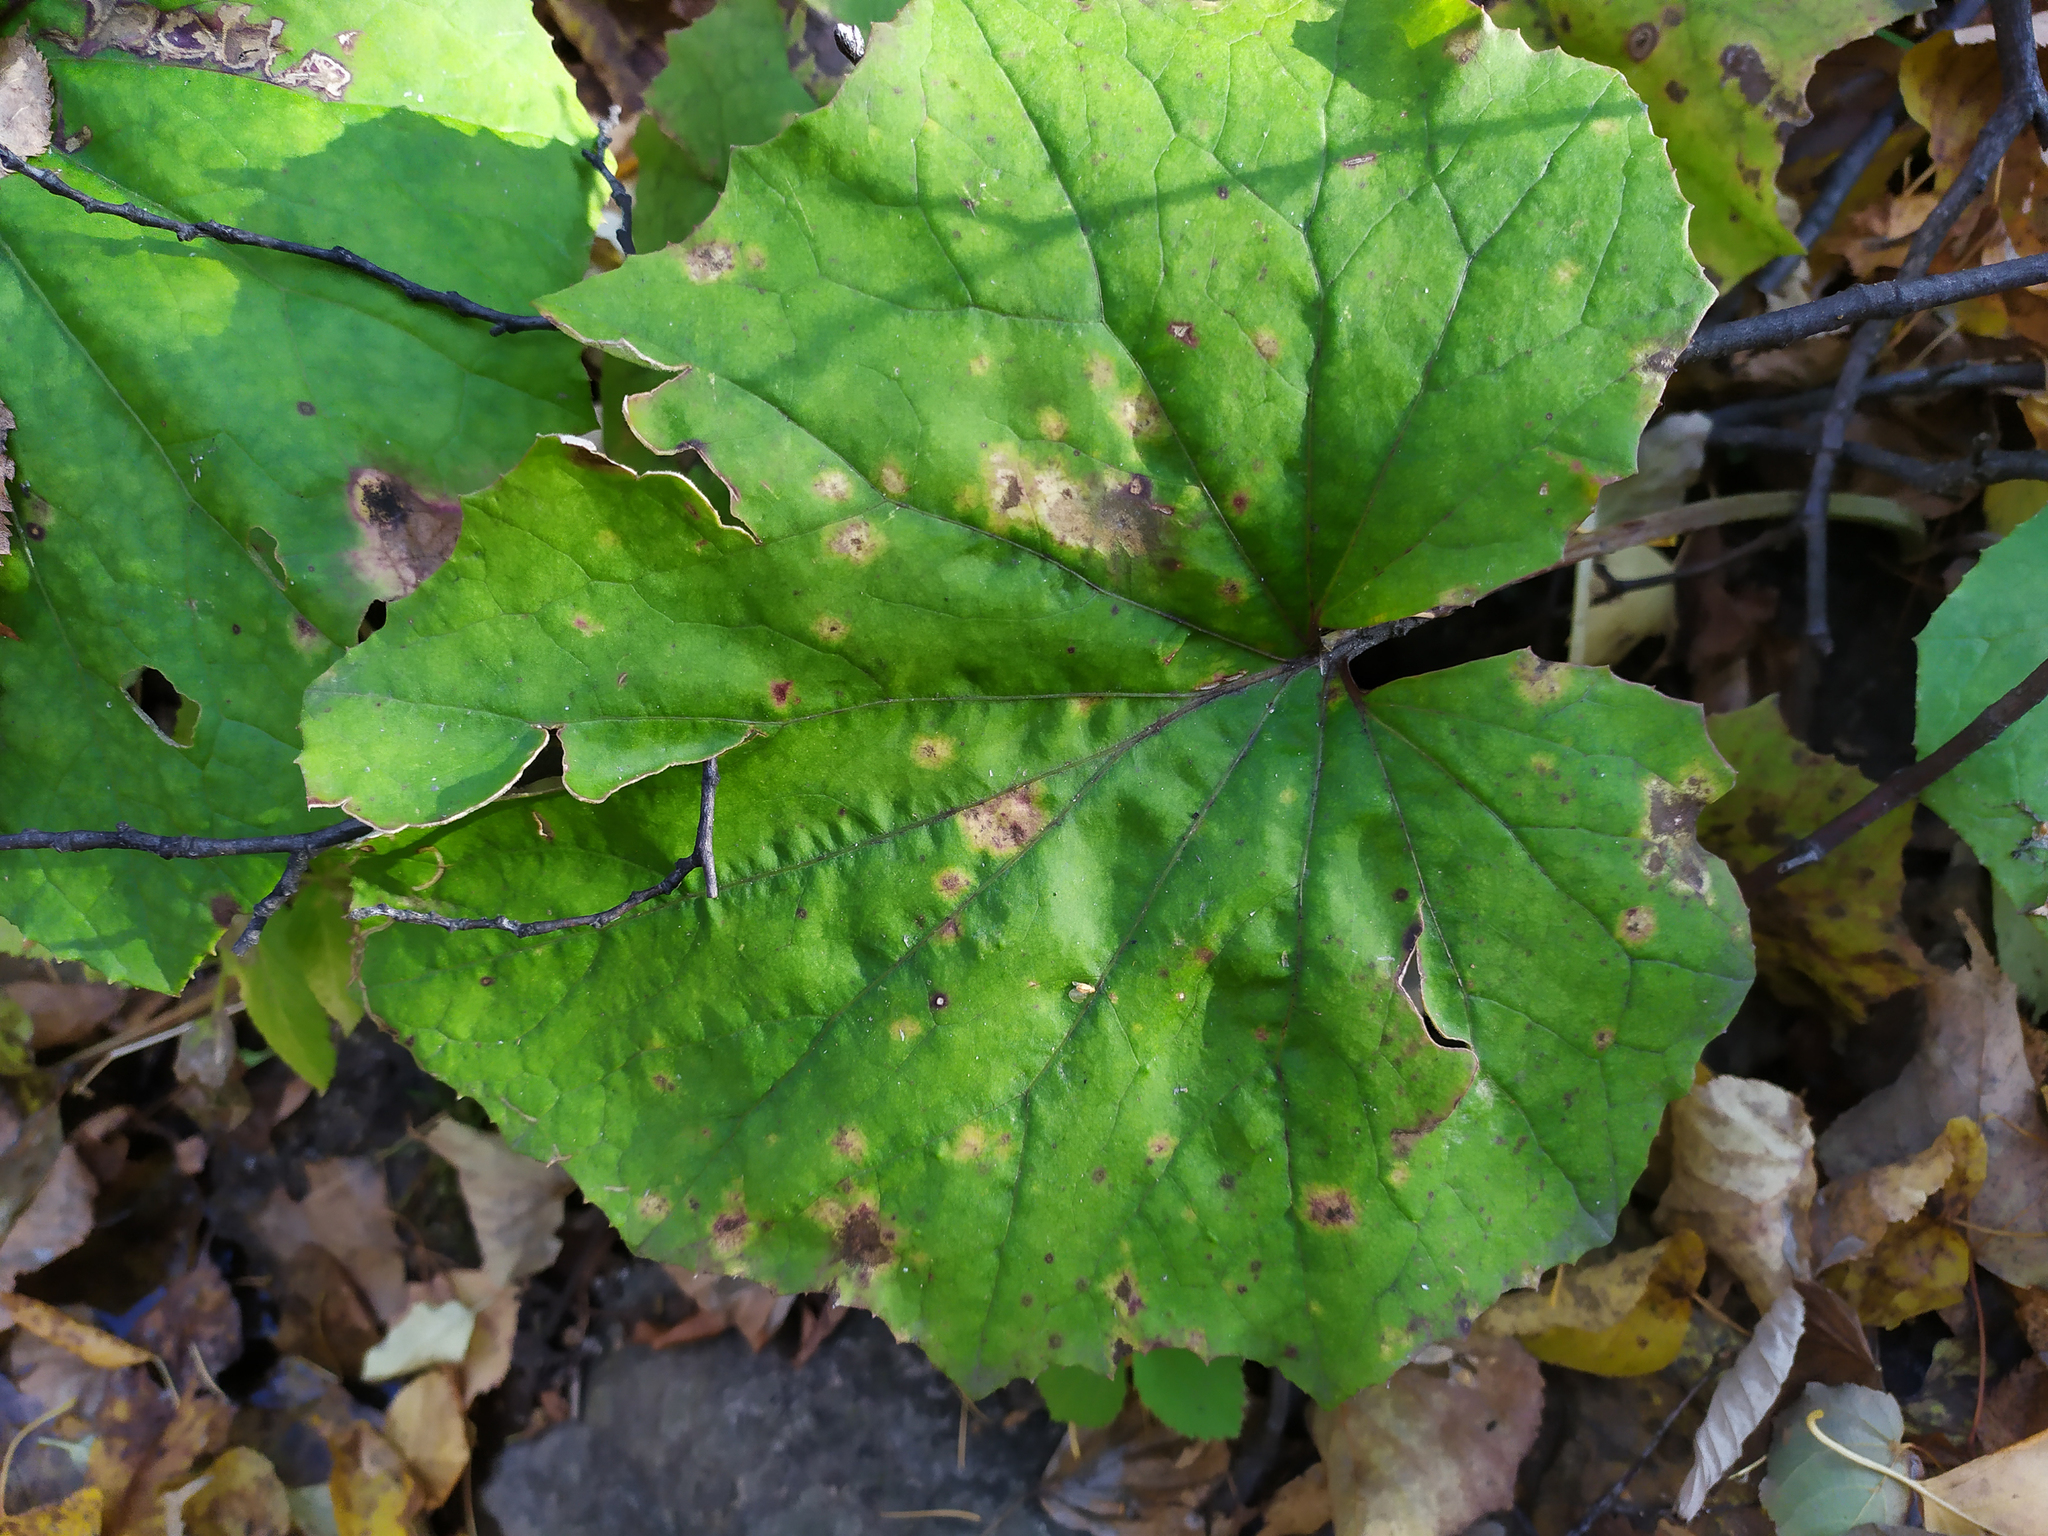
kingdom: Plantae
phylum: Tracheophyta
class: Magnoliopsida
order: Asterales
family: Asteraceae
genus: Tussilago
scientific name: Tussilago farfara
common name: Coltsfoot
